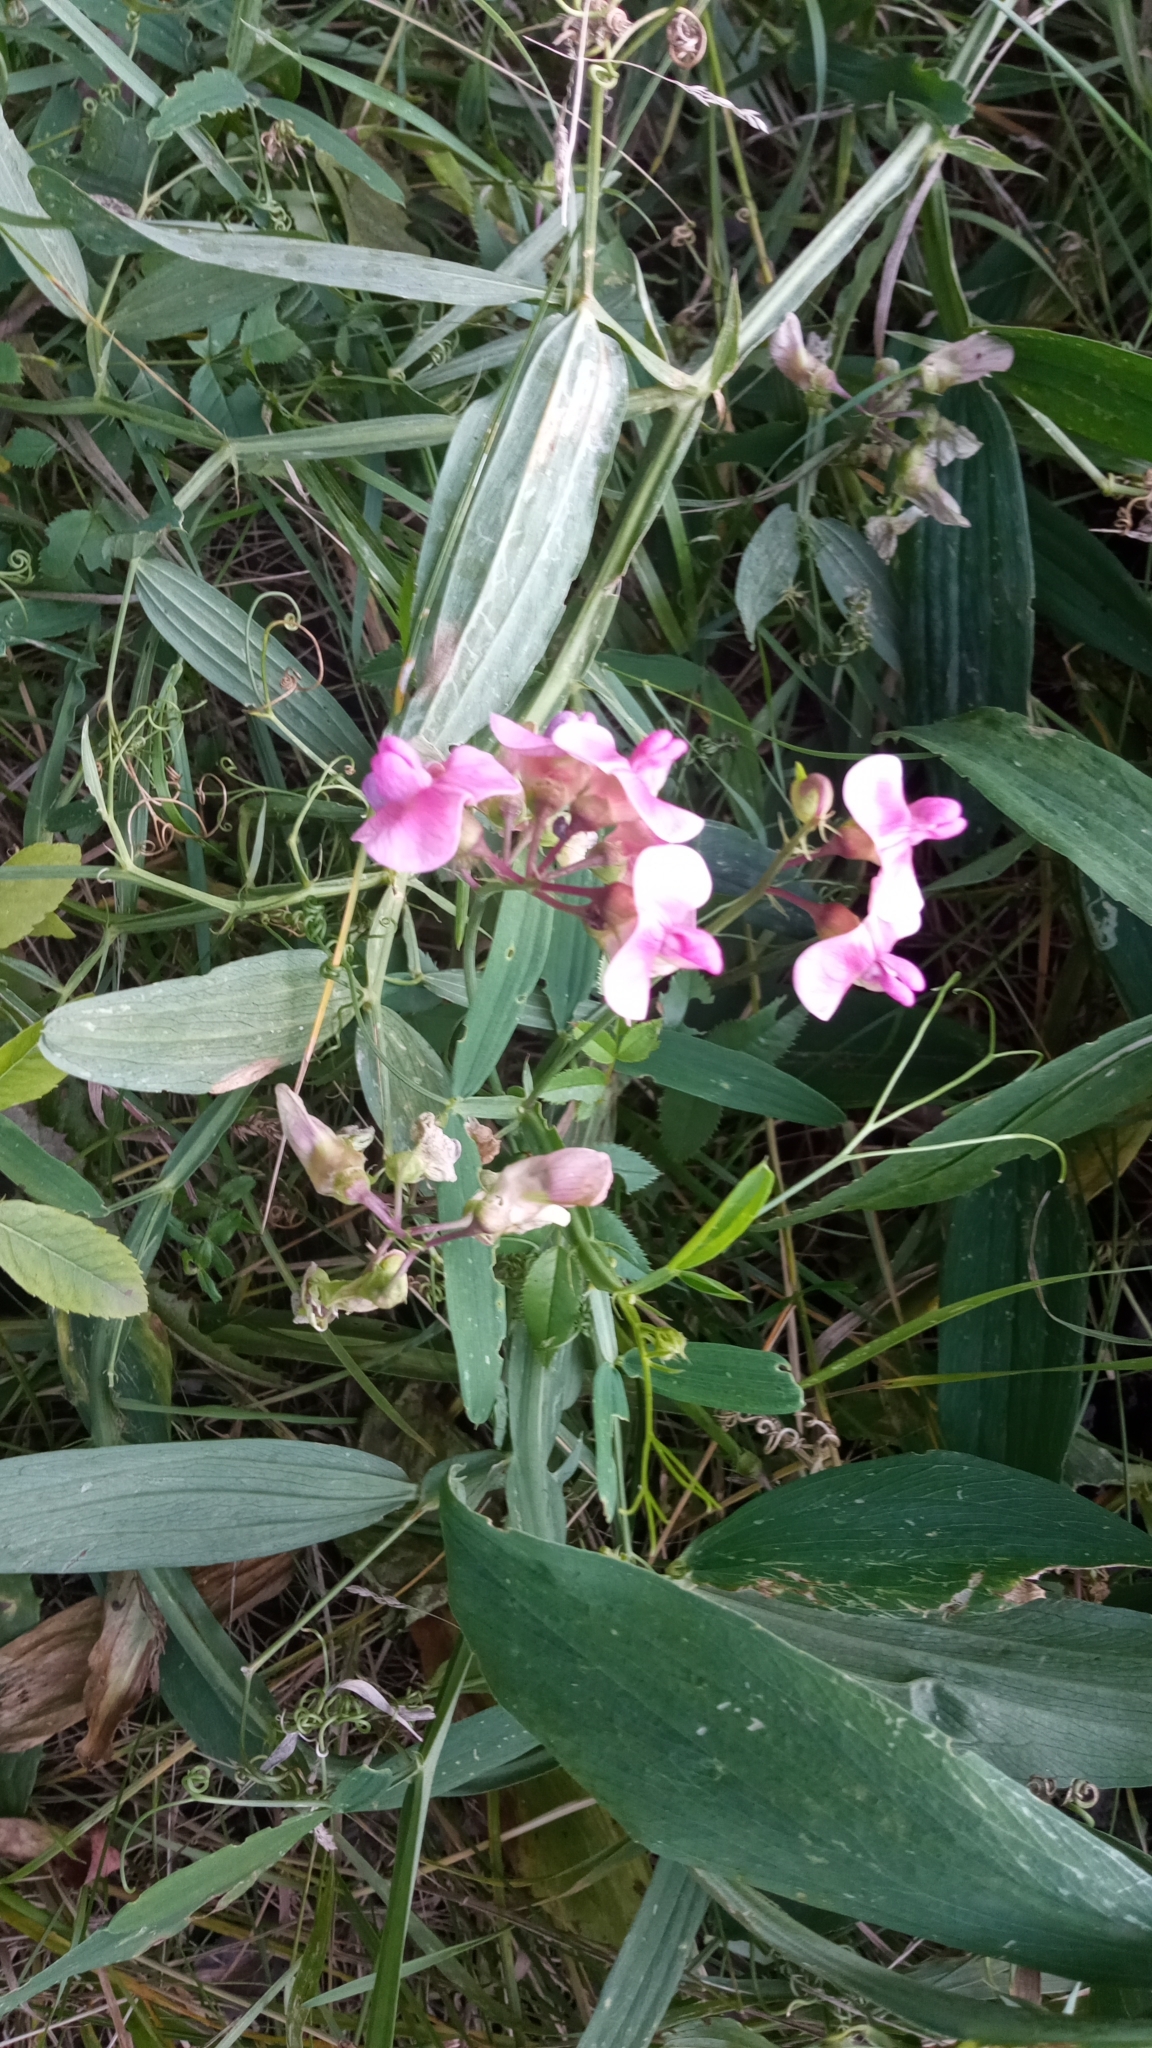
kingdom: Plantae
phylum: Tracheophyta
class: Magnoliopsida
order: Fabales
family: Fabaceae
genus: Lathyrus
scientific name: Lathyrus sylvestris
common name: Flat pea
